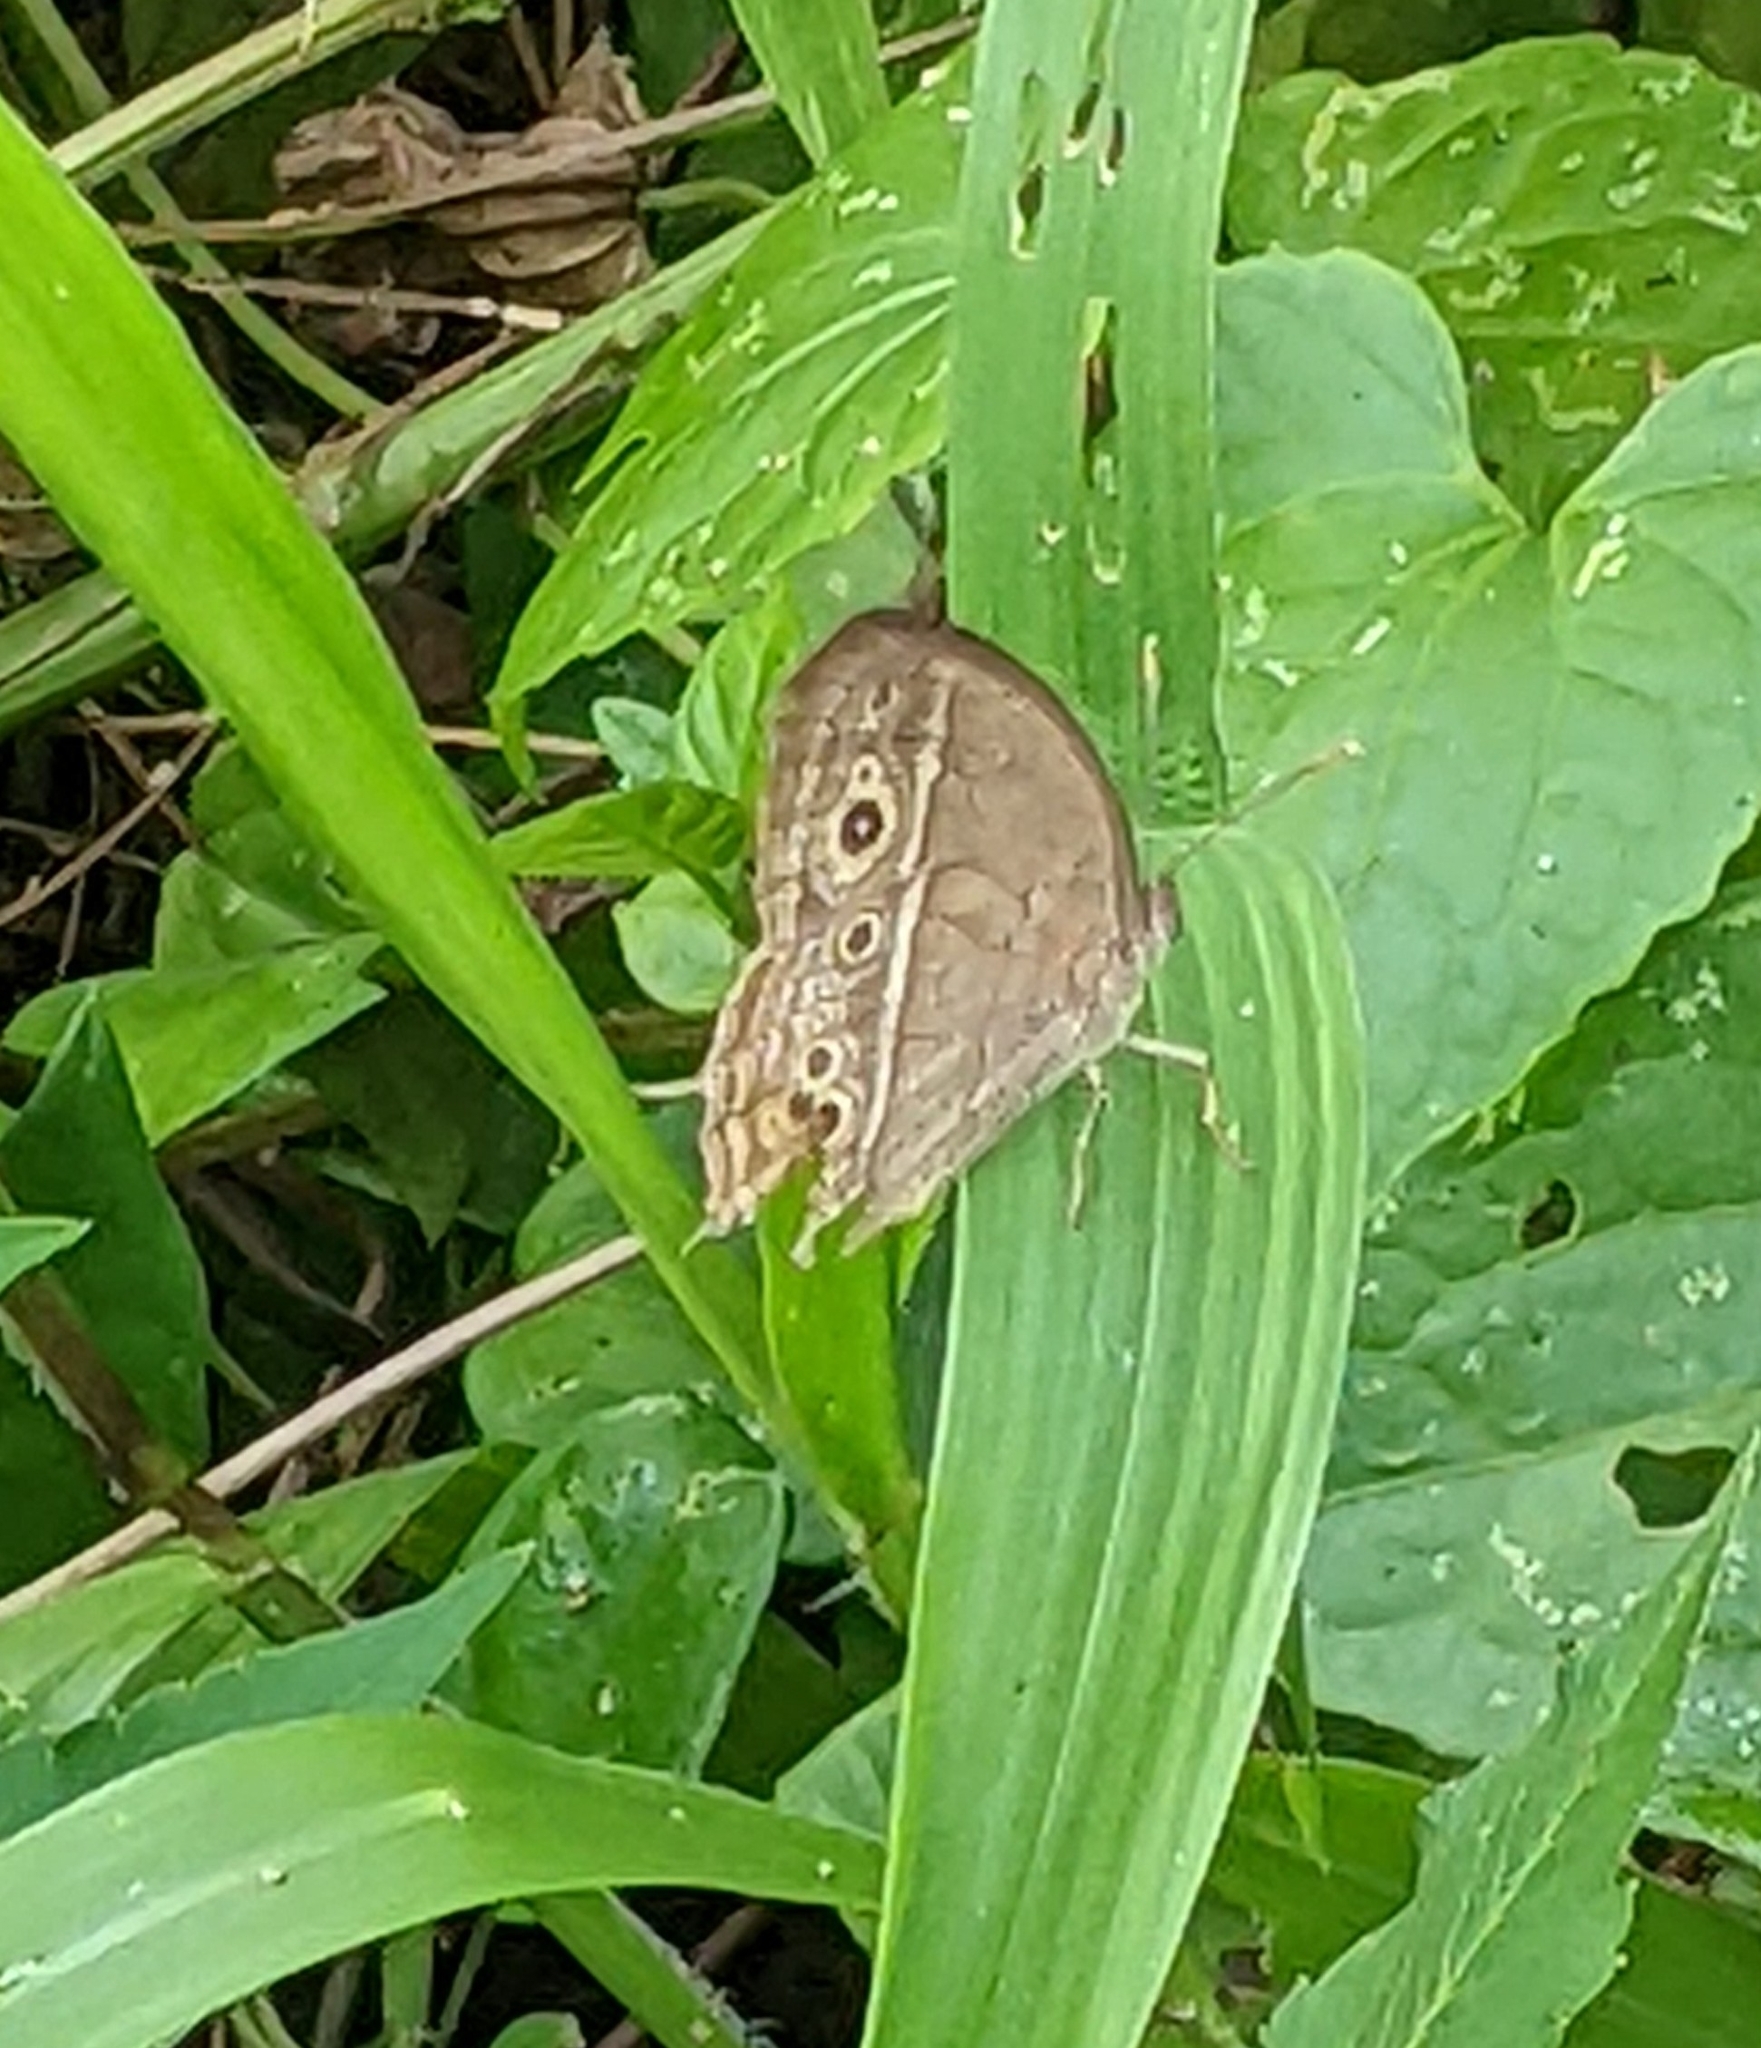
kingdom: Animalia
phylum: Arthropoda
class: Insecta
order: Lepidoptera
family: Nymphalidae
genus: Mycalesis
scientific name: Mycalesis perseoides
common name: Burmese bushbrown
